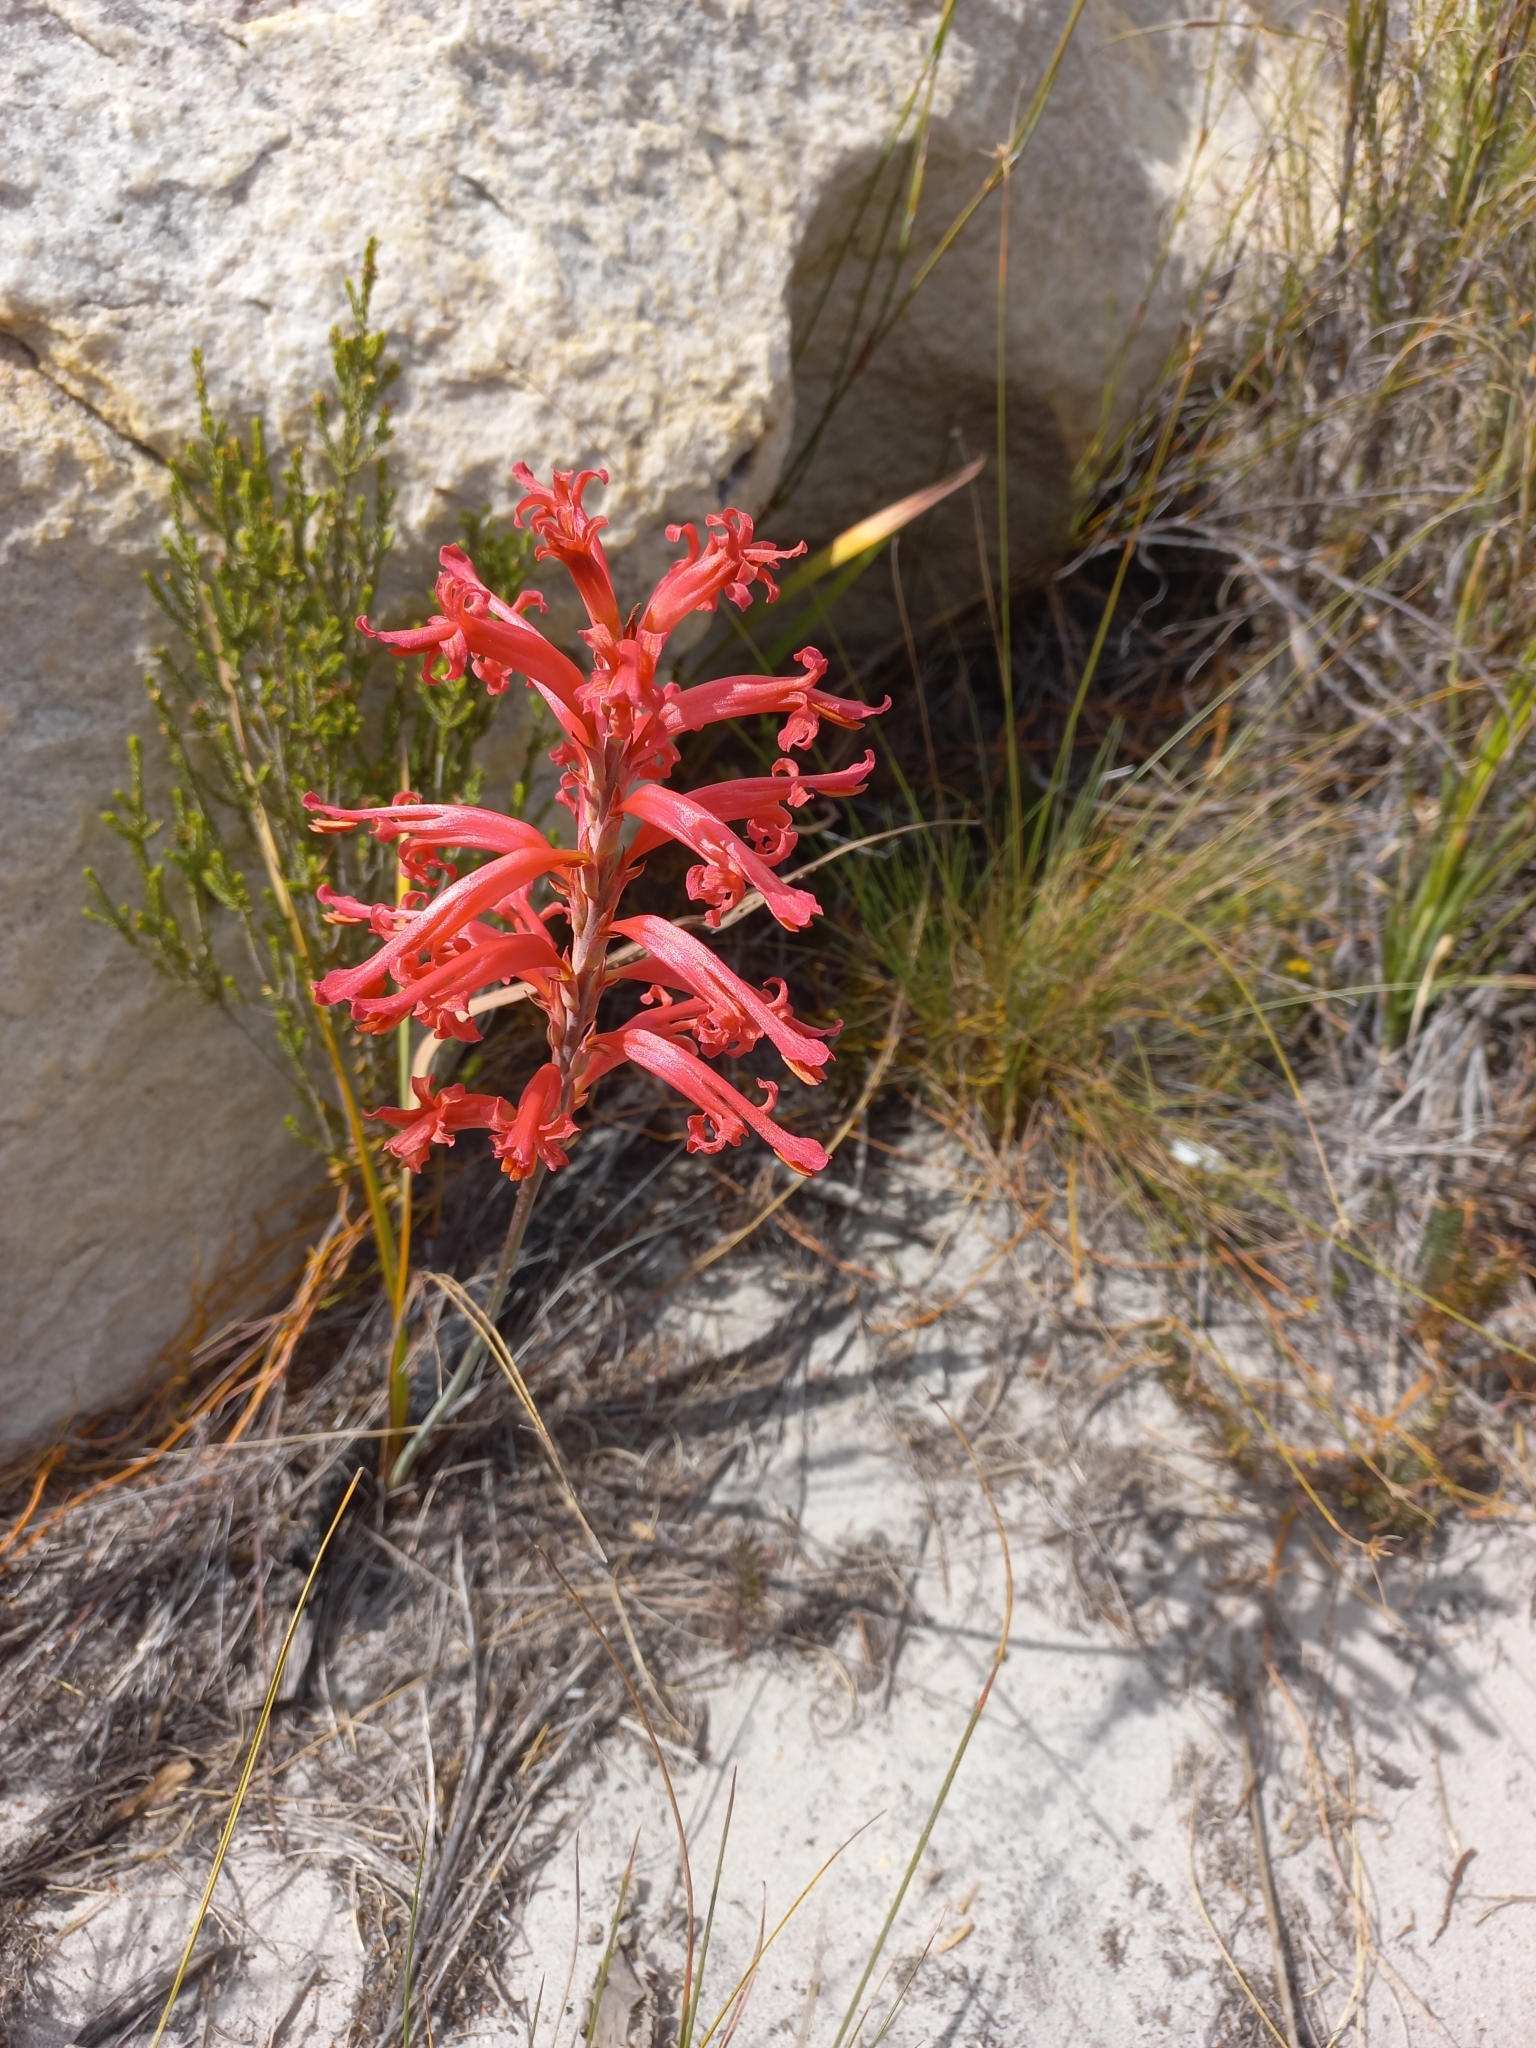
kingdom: Plantae
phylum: Tracheophyta
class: Liliopsida
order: Asparagales
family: Iridaceae
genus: Tritoniopsis
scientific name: Tritoniopsis antholyza
